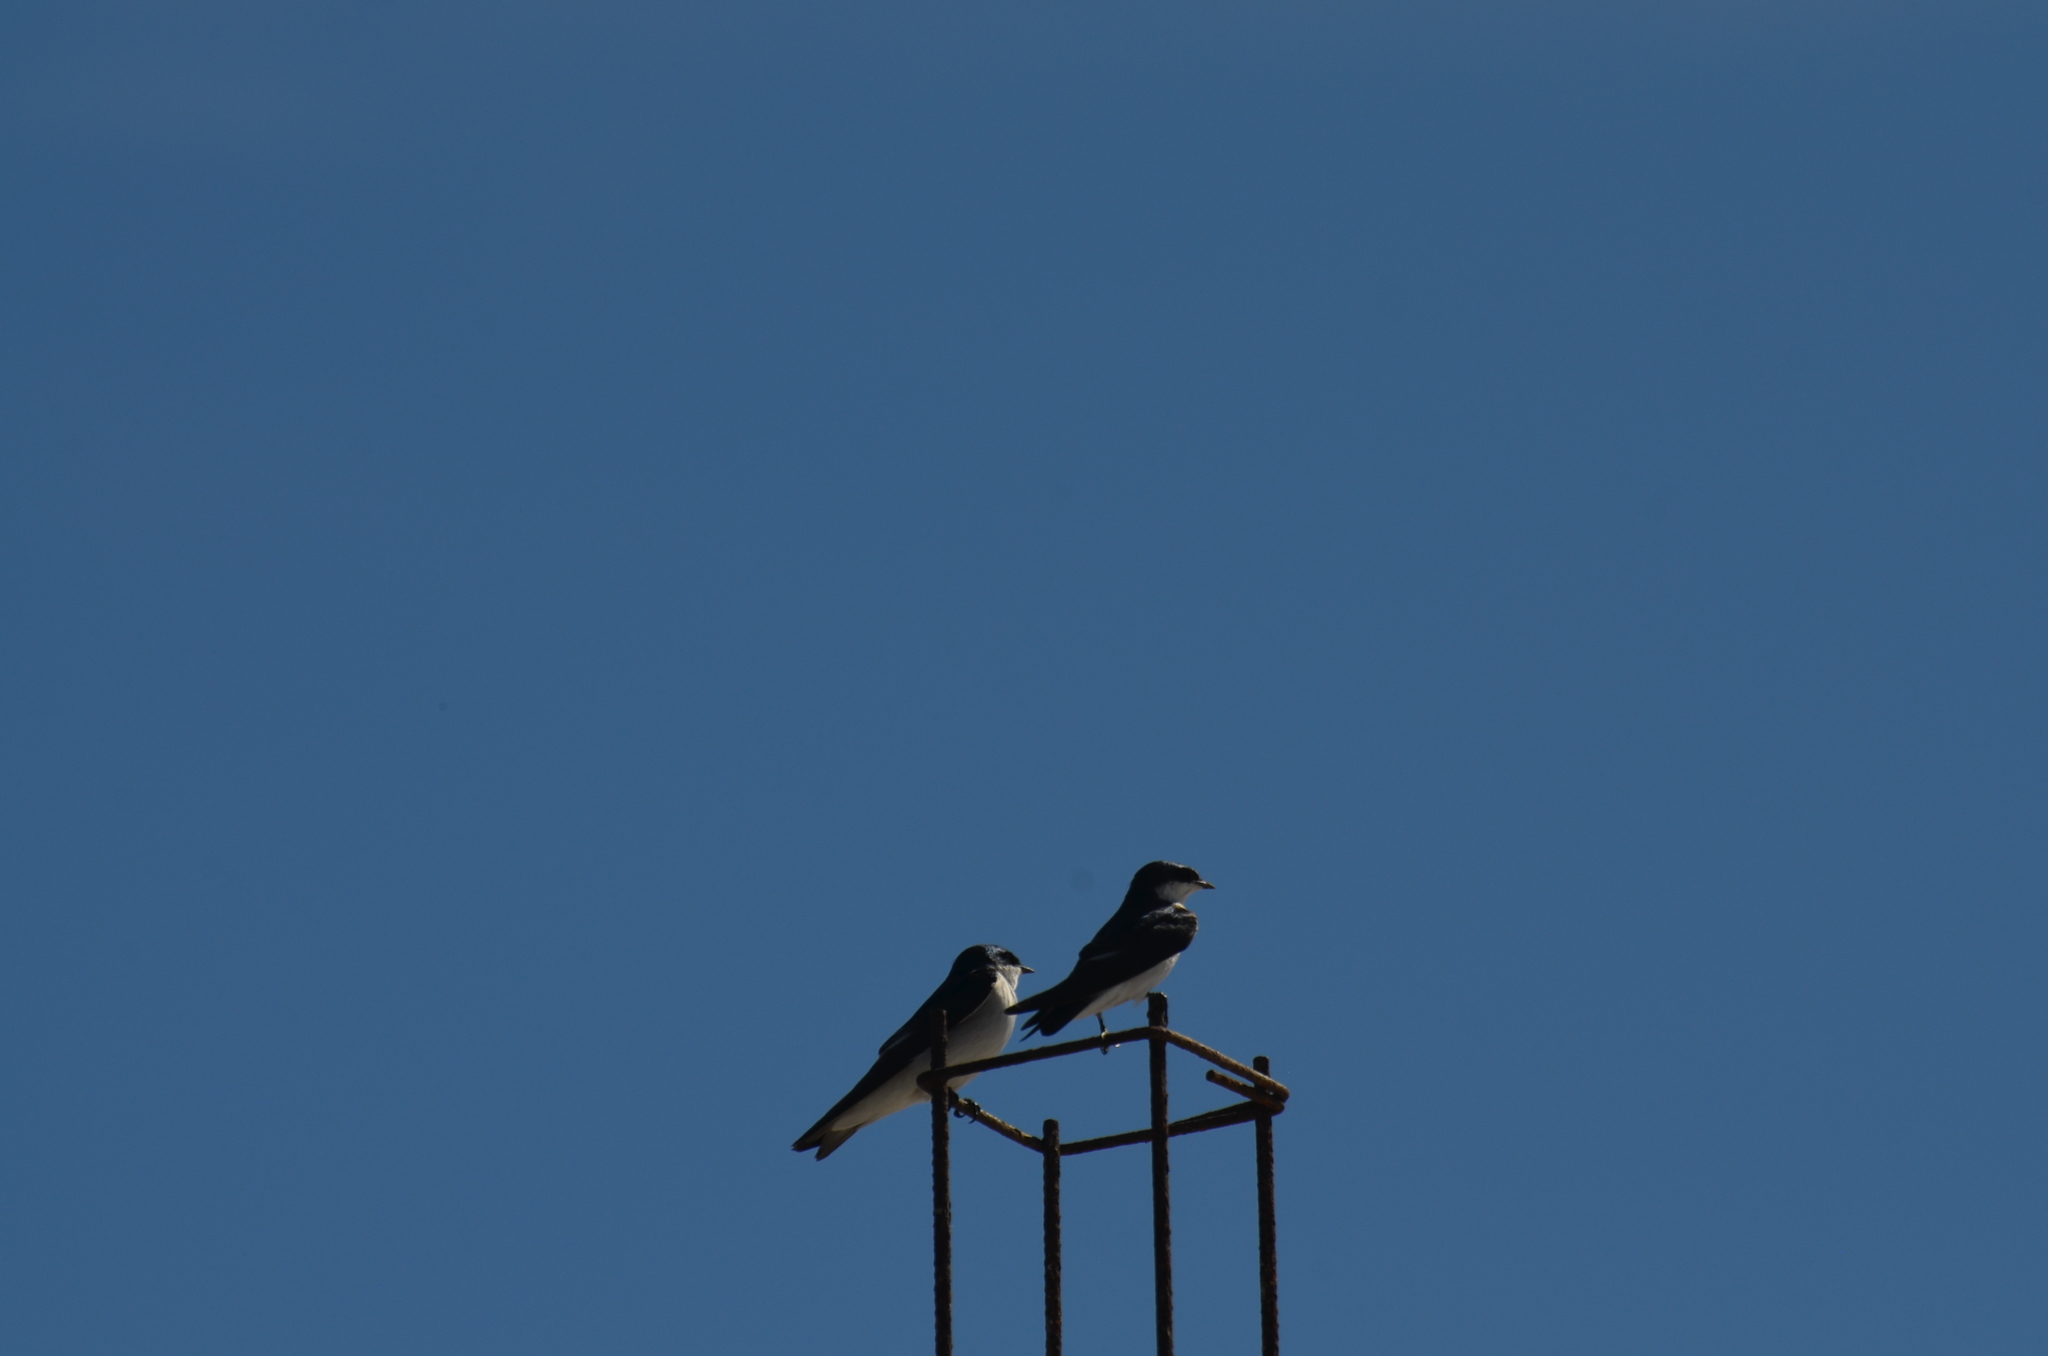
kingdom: Animalia
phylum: Chordata
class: Aves
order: Passeriformes
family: Hirundinidae
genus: Tachycineta
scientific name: Tachycineta albilinea
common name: Mangrove swallow
